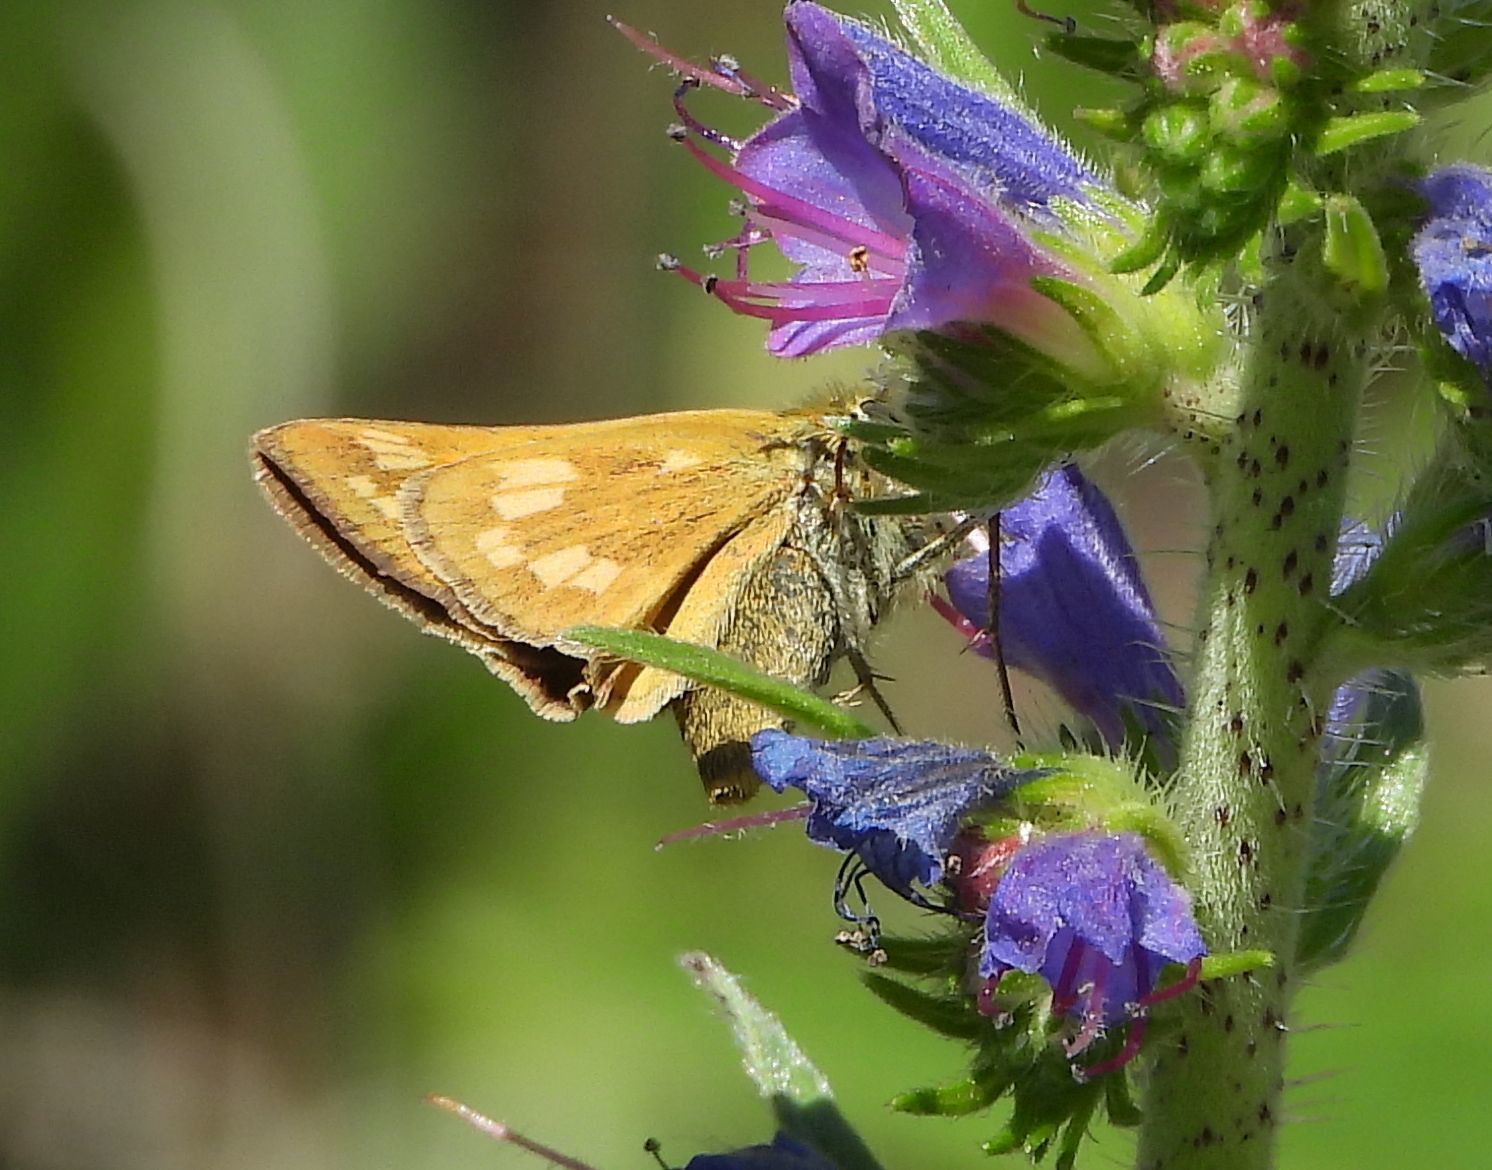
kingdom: Animalia
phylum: Arthropoda
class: Insecta
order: Lepidoptera
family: Hesperiidae
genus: Hesperia
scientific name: Hesperia sassacus
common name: Indian skipper
